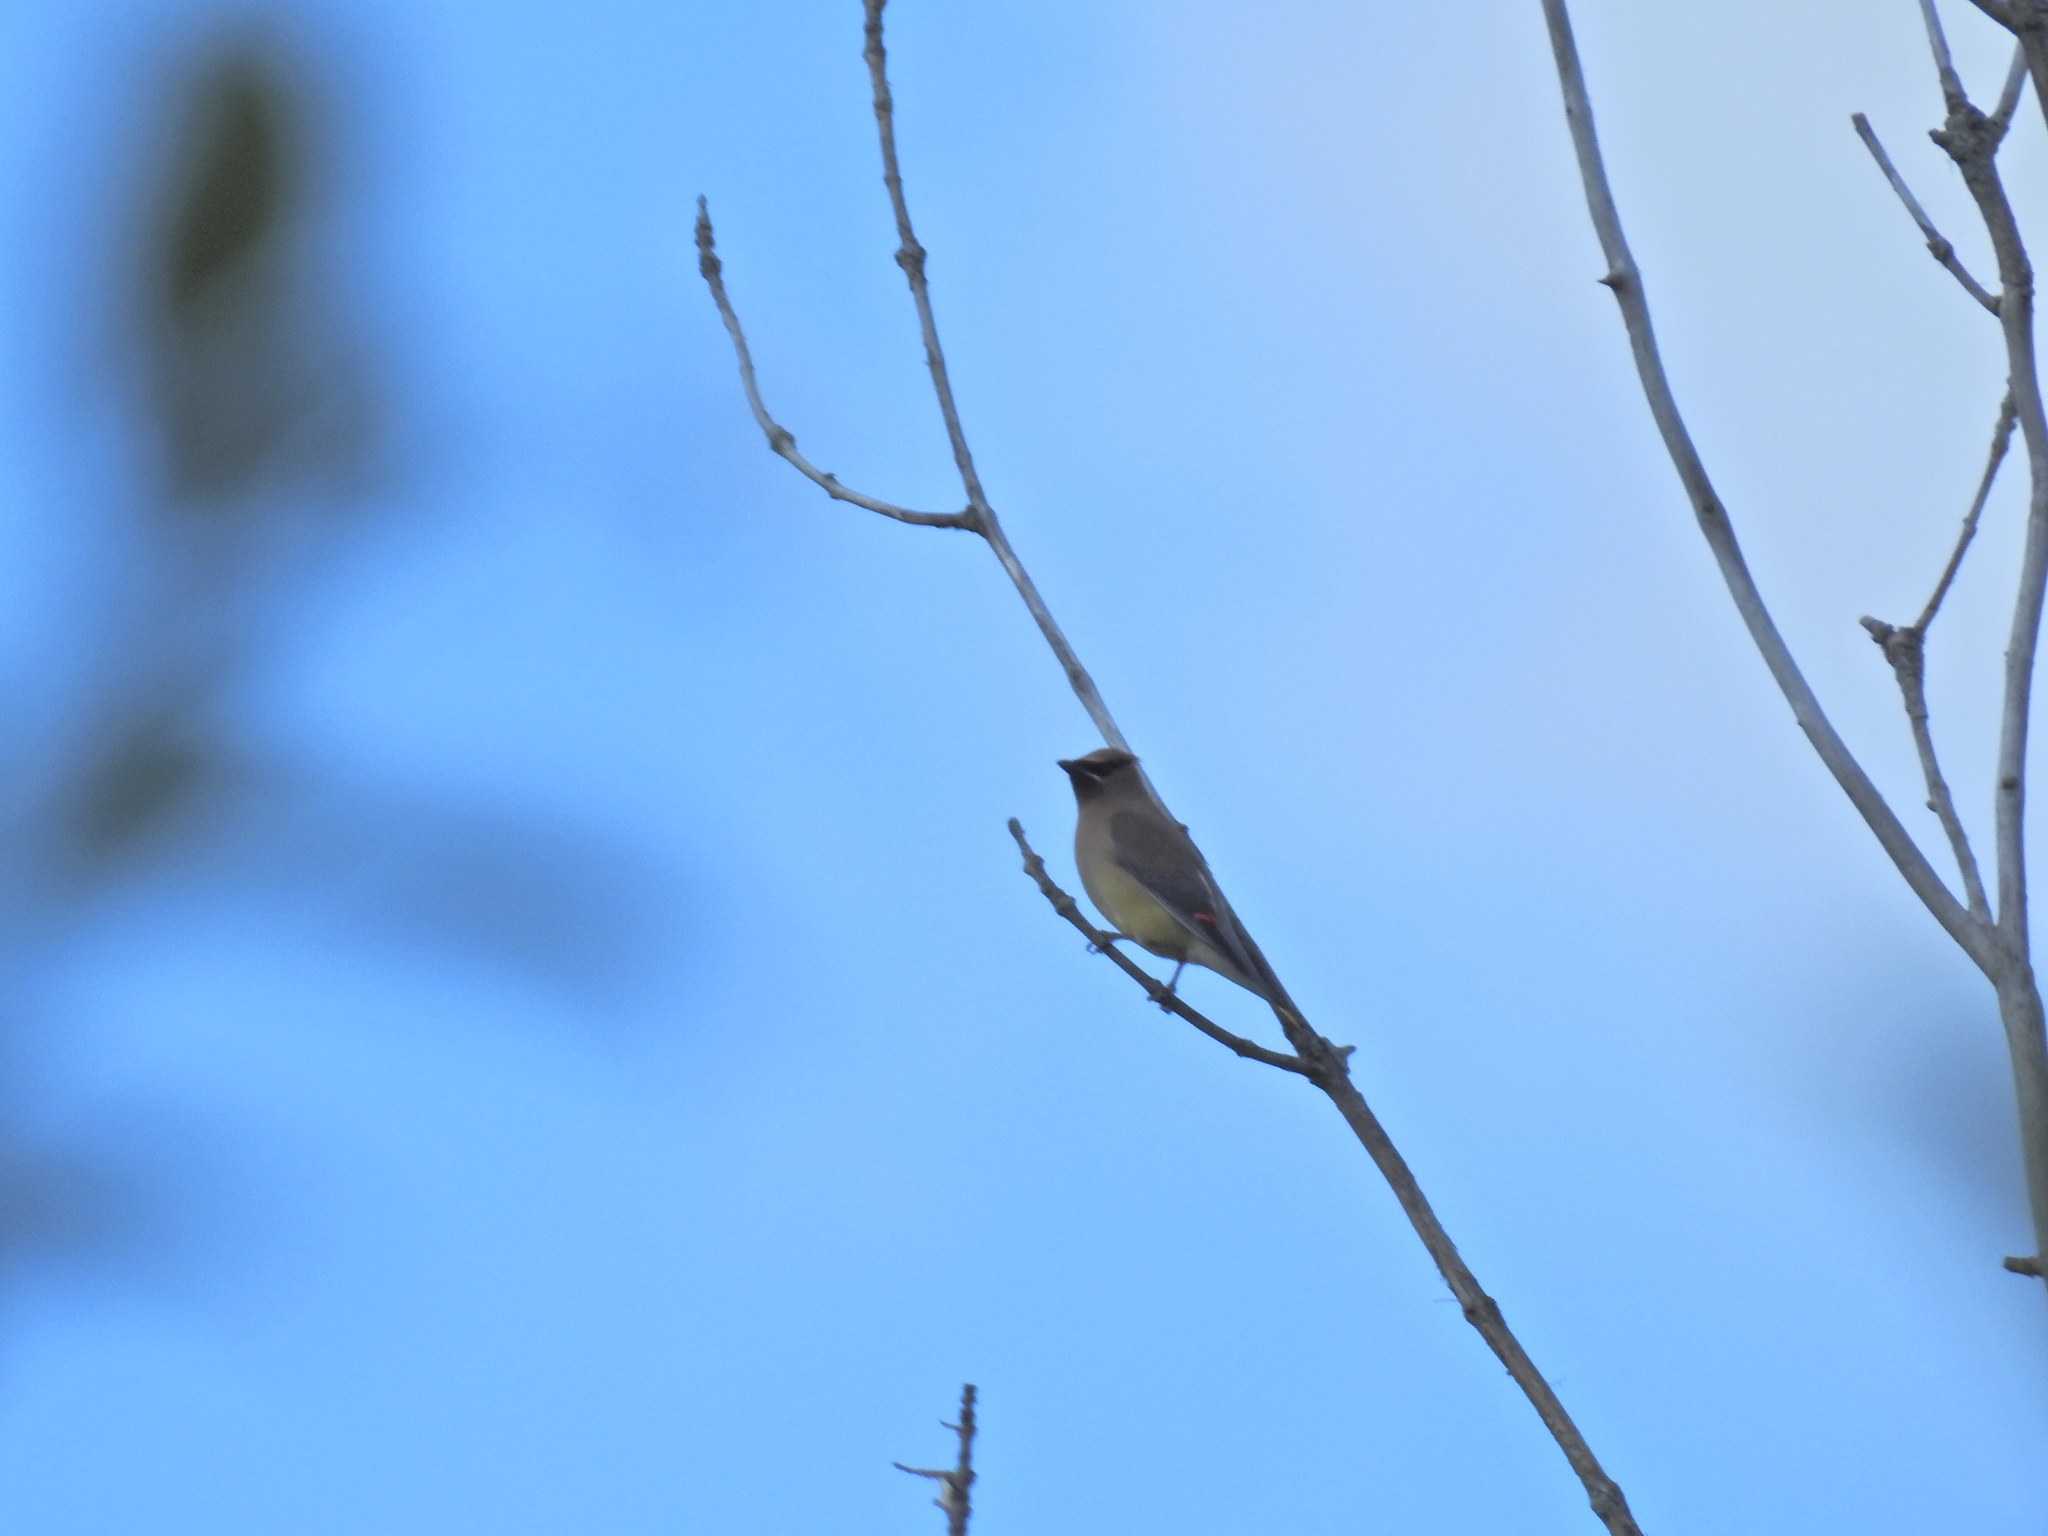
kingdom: Animalia
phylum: Chordata
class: Aves
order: Passeriformes
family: Bombycillidae
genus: Bombycilla
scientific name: Bombycilla cedrorum
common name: Cedar waxwing
